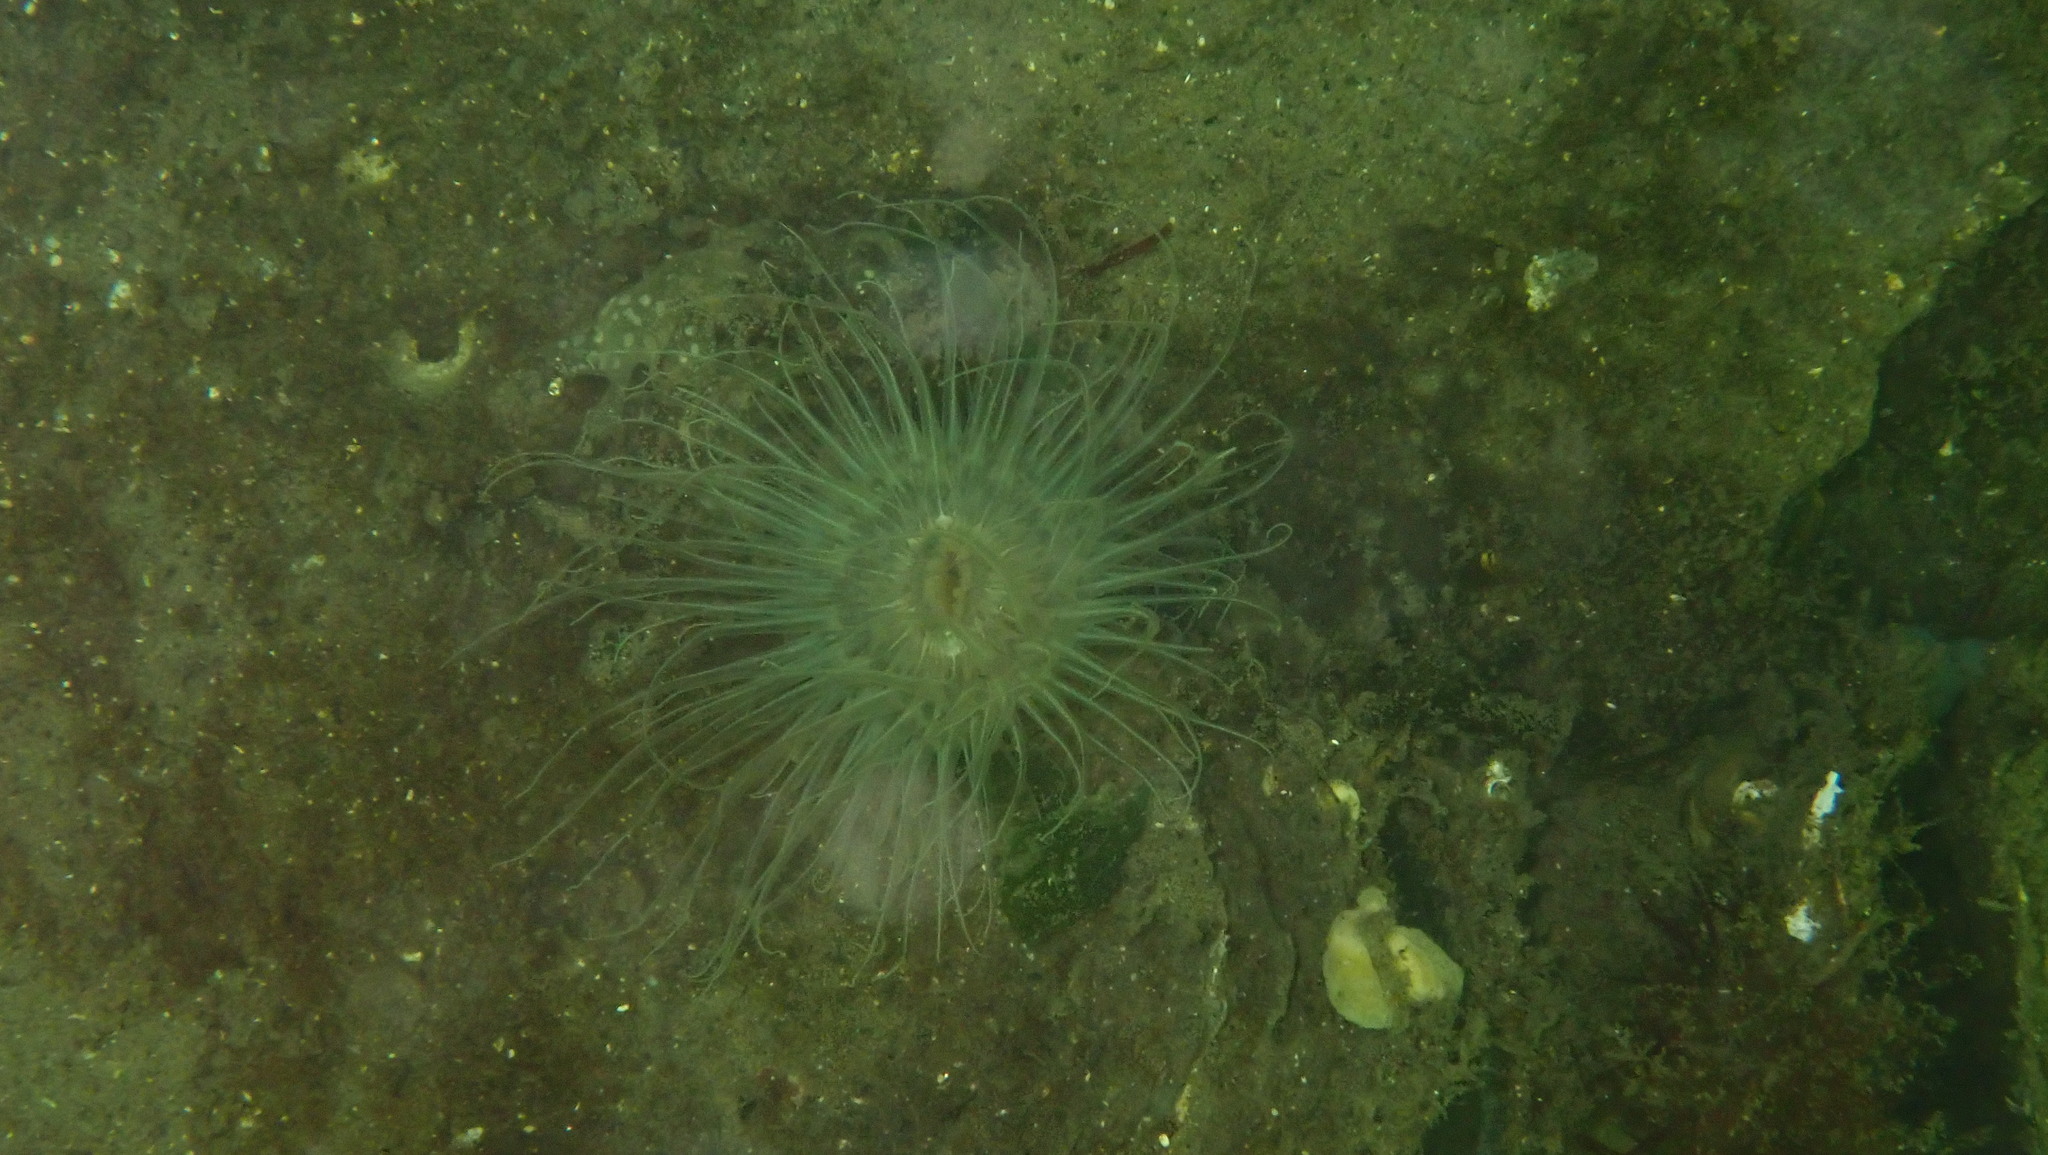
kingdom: Animalia
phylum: Cnidaria
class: Anthozoa
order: Actiniaria
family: Sagartiidae
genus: Sagartia
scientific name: Sagartia undata
